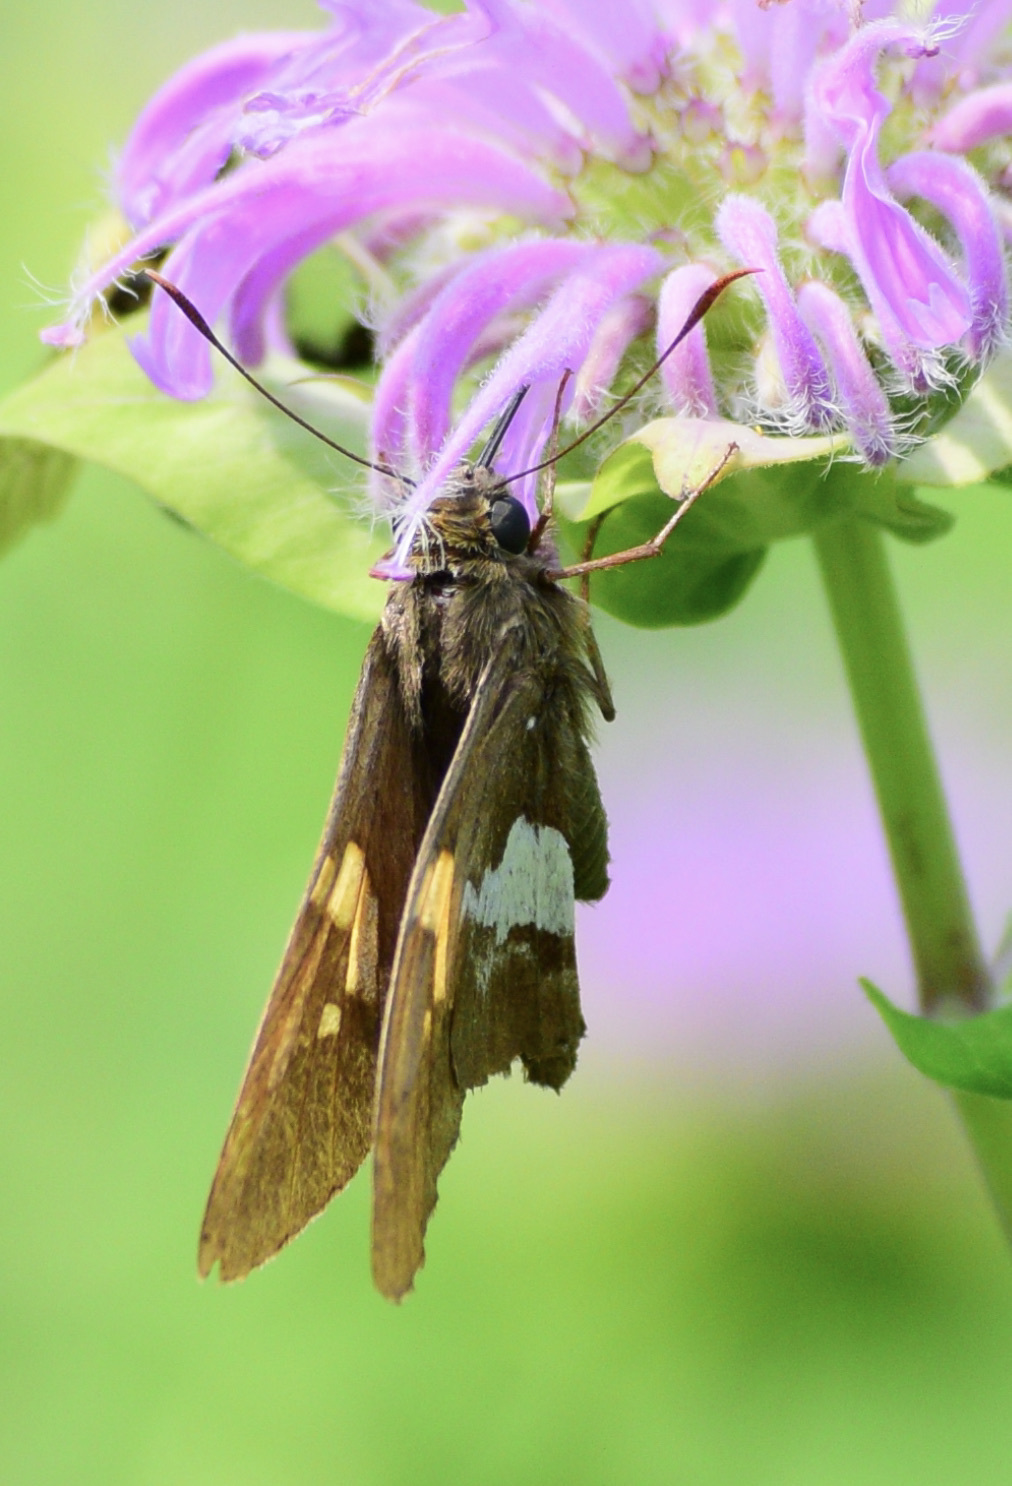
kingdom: Animalia
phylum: Arthropoda
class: Insecta
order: Lepidoptera
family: Hesperiidae
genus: Epargyreus
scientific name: Epargyreus clarus
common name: Silver-spotted skipper
